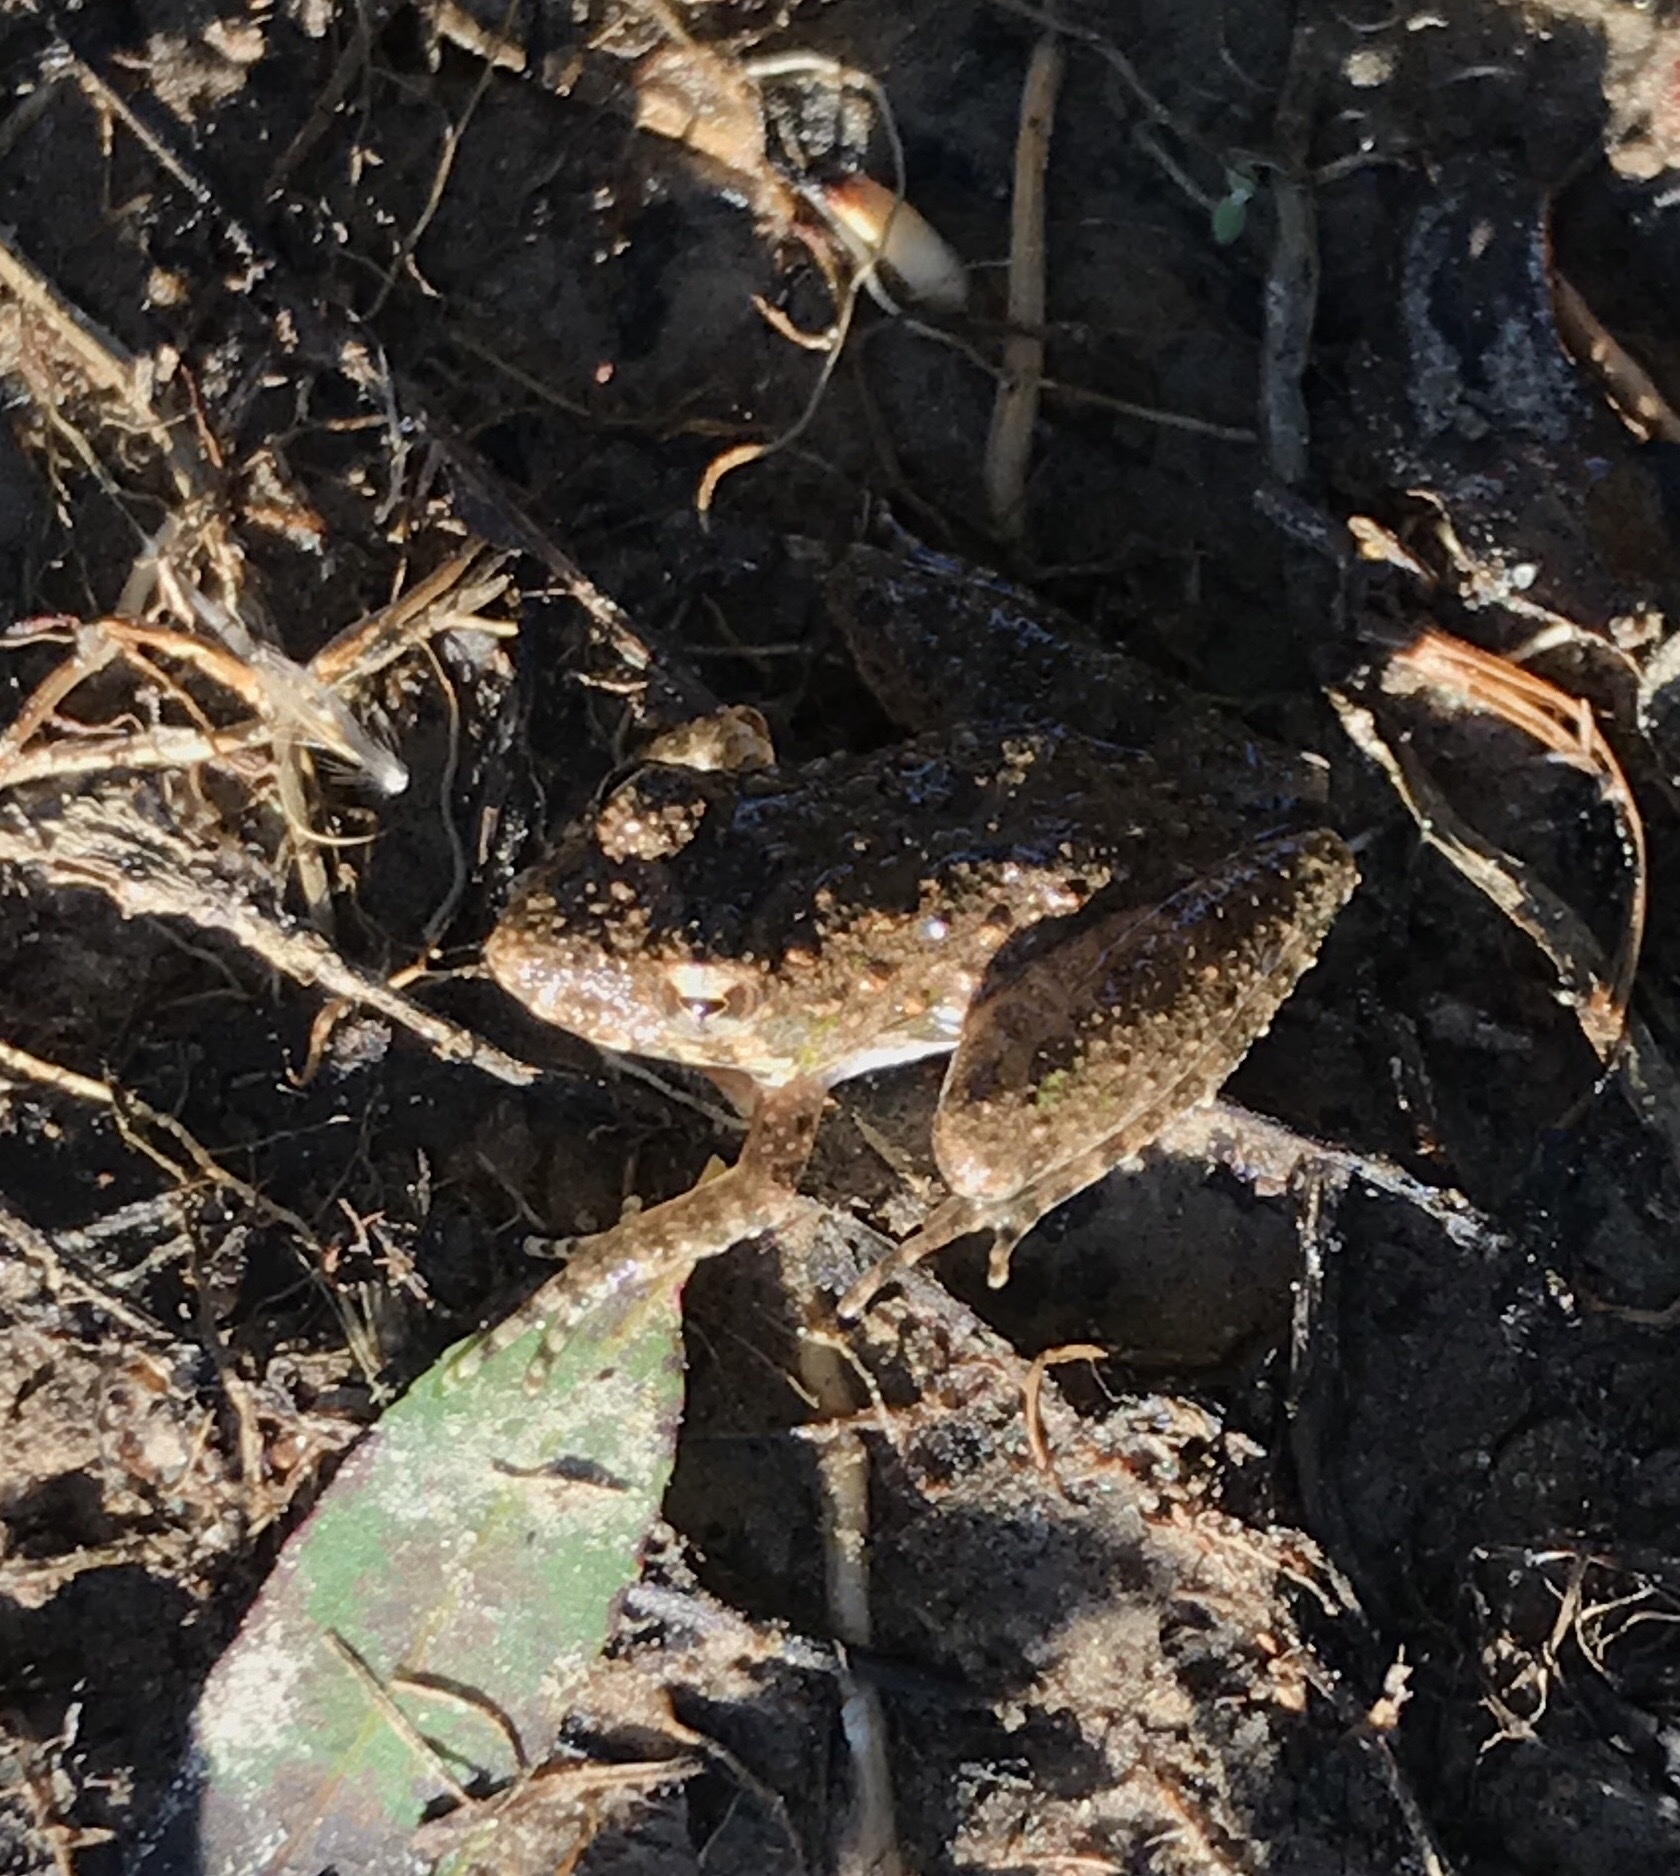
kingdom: Animalia
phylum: Chordata
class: Amphibia
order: Anura
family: Hylidae
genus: Acris
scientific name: Acris blanchardi
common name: Blanchard's cricket frog
